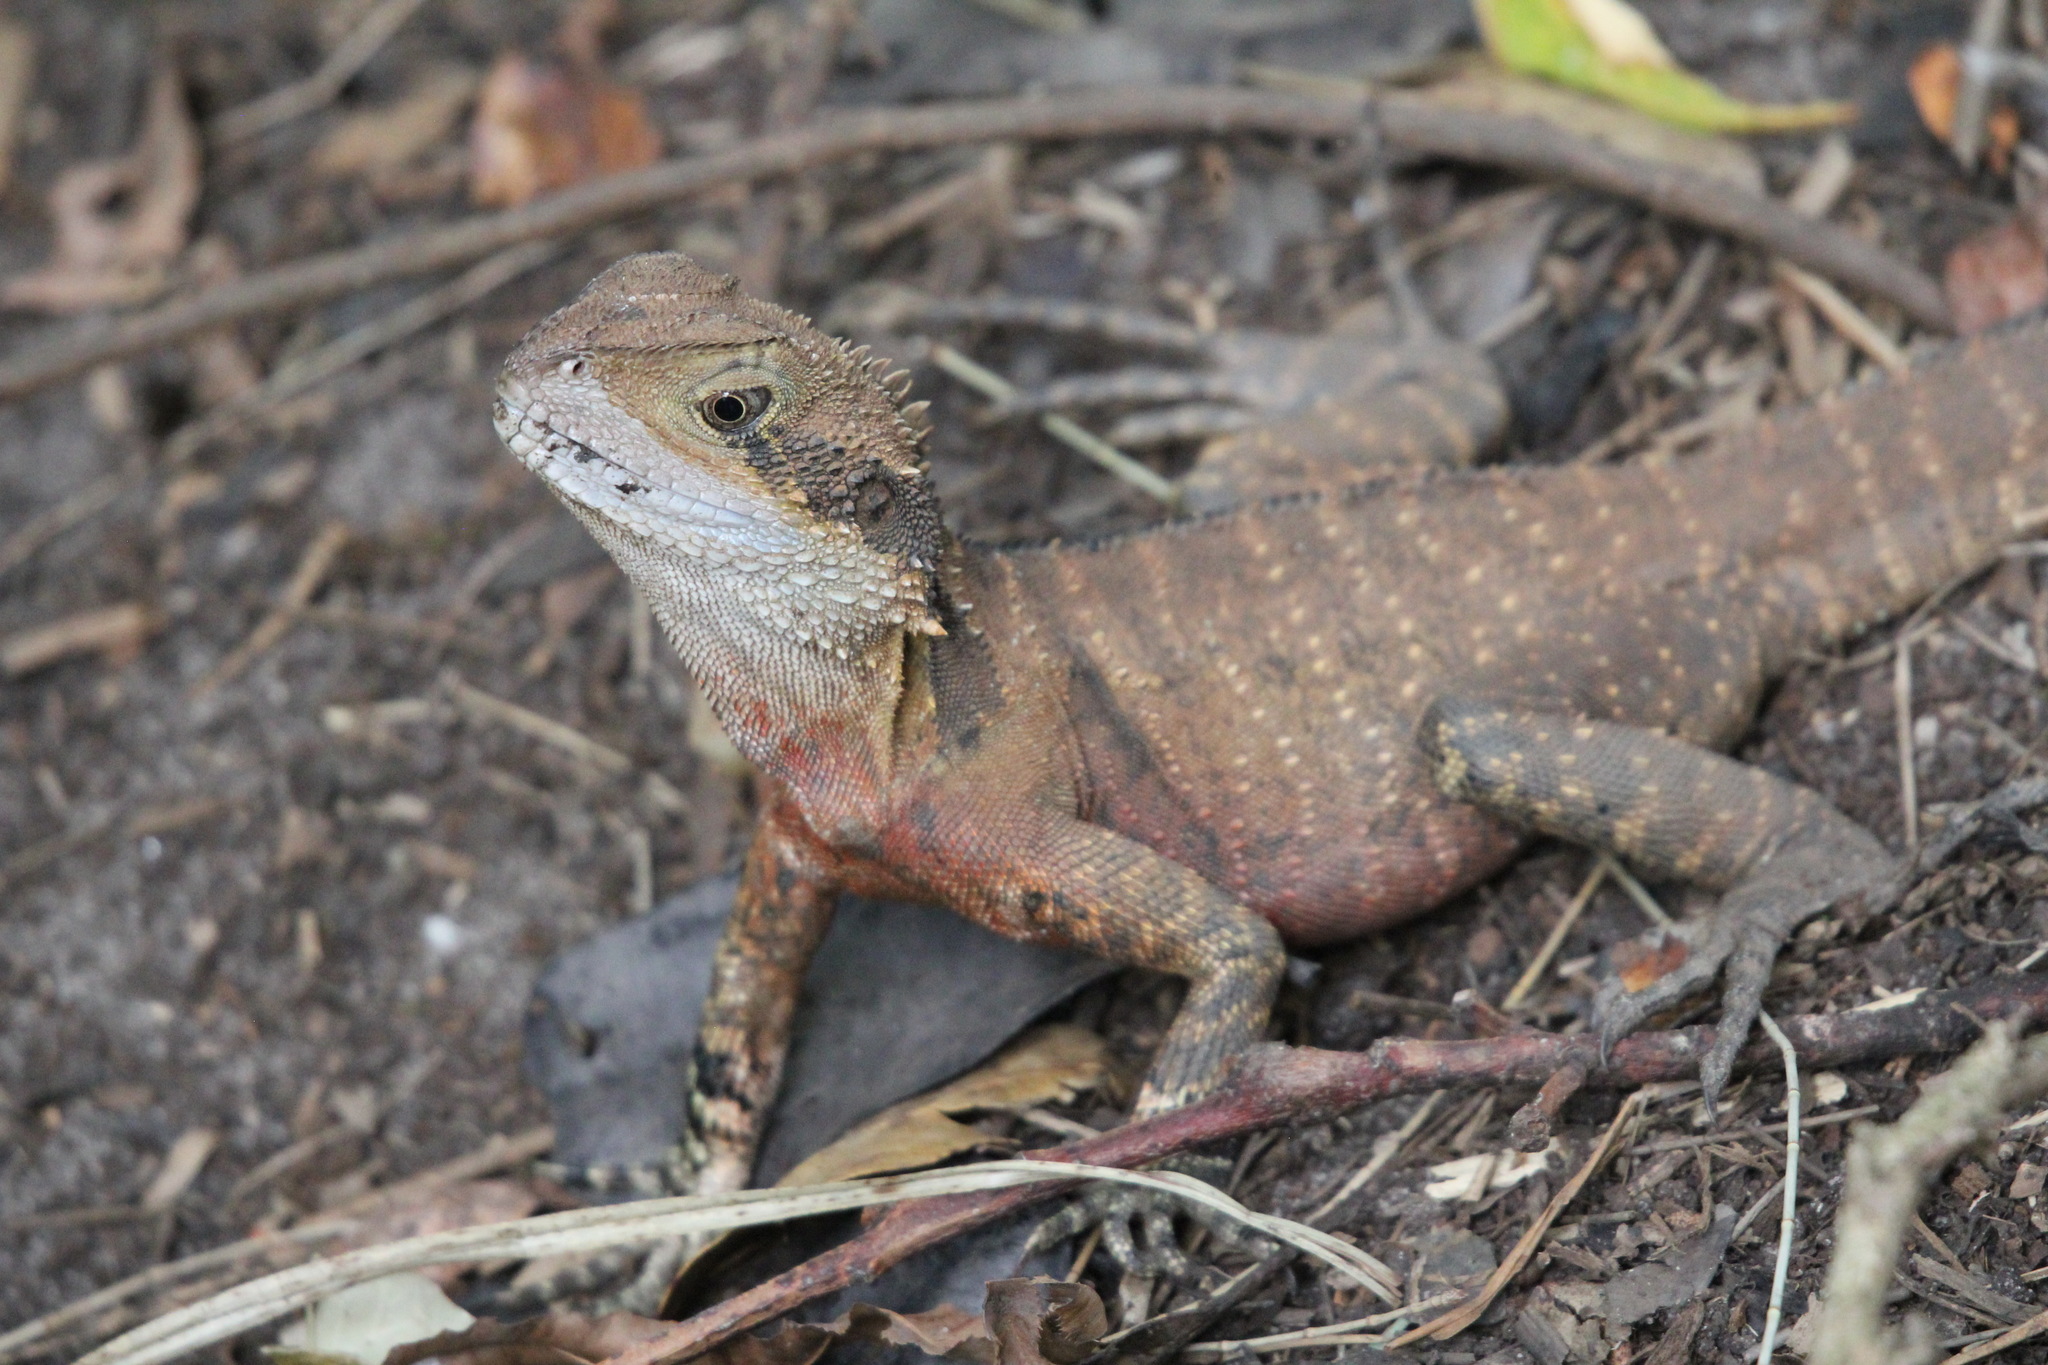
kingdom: Animalia
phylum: Chordata
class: Squamata
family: Agamidae
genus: Intellagama
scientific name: Intellagama lesueurii
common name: Eastern water dragon
